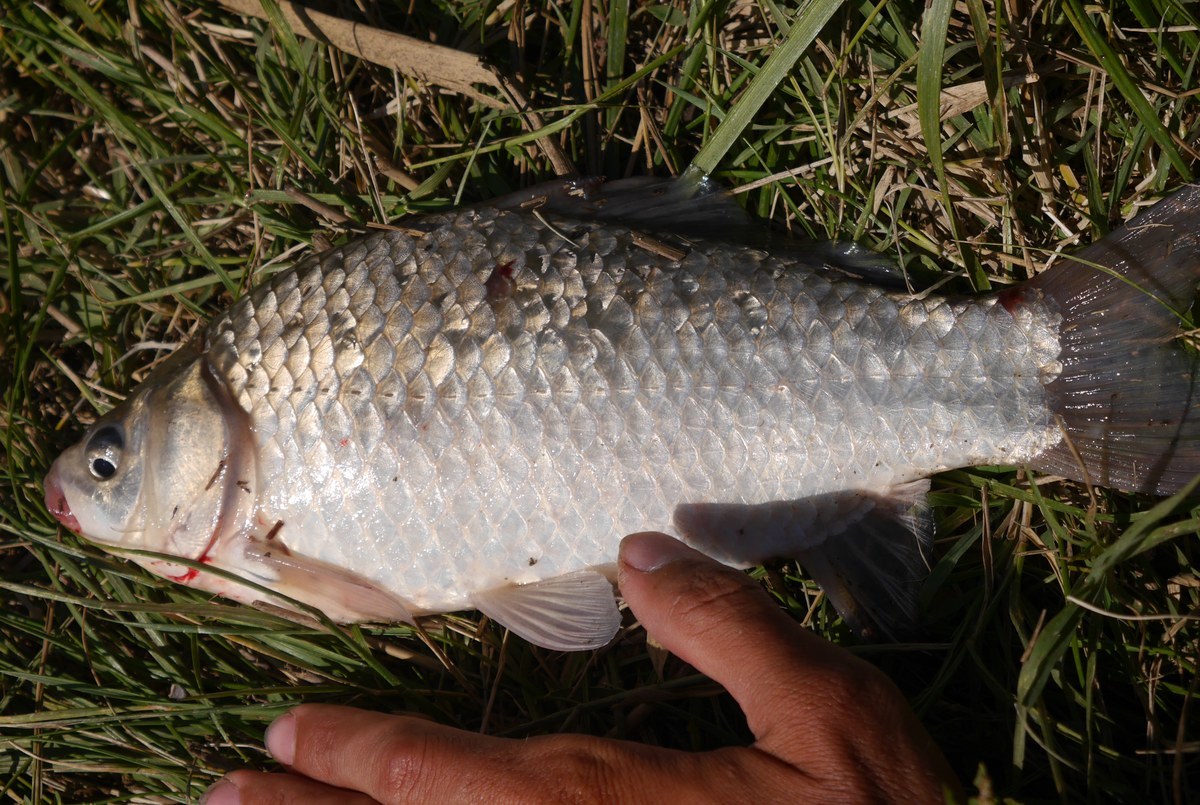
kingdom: Animalia
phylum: Chordata
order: Cypriniformes
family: Cyprinidae
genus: Carassius
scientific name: Carassius gibelio
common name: Prussian carp
